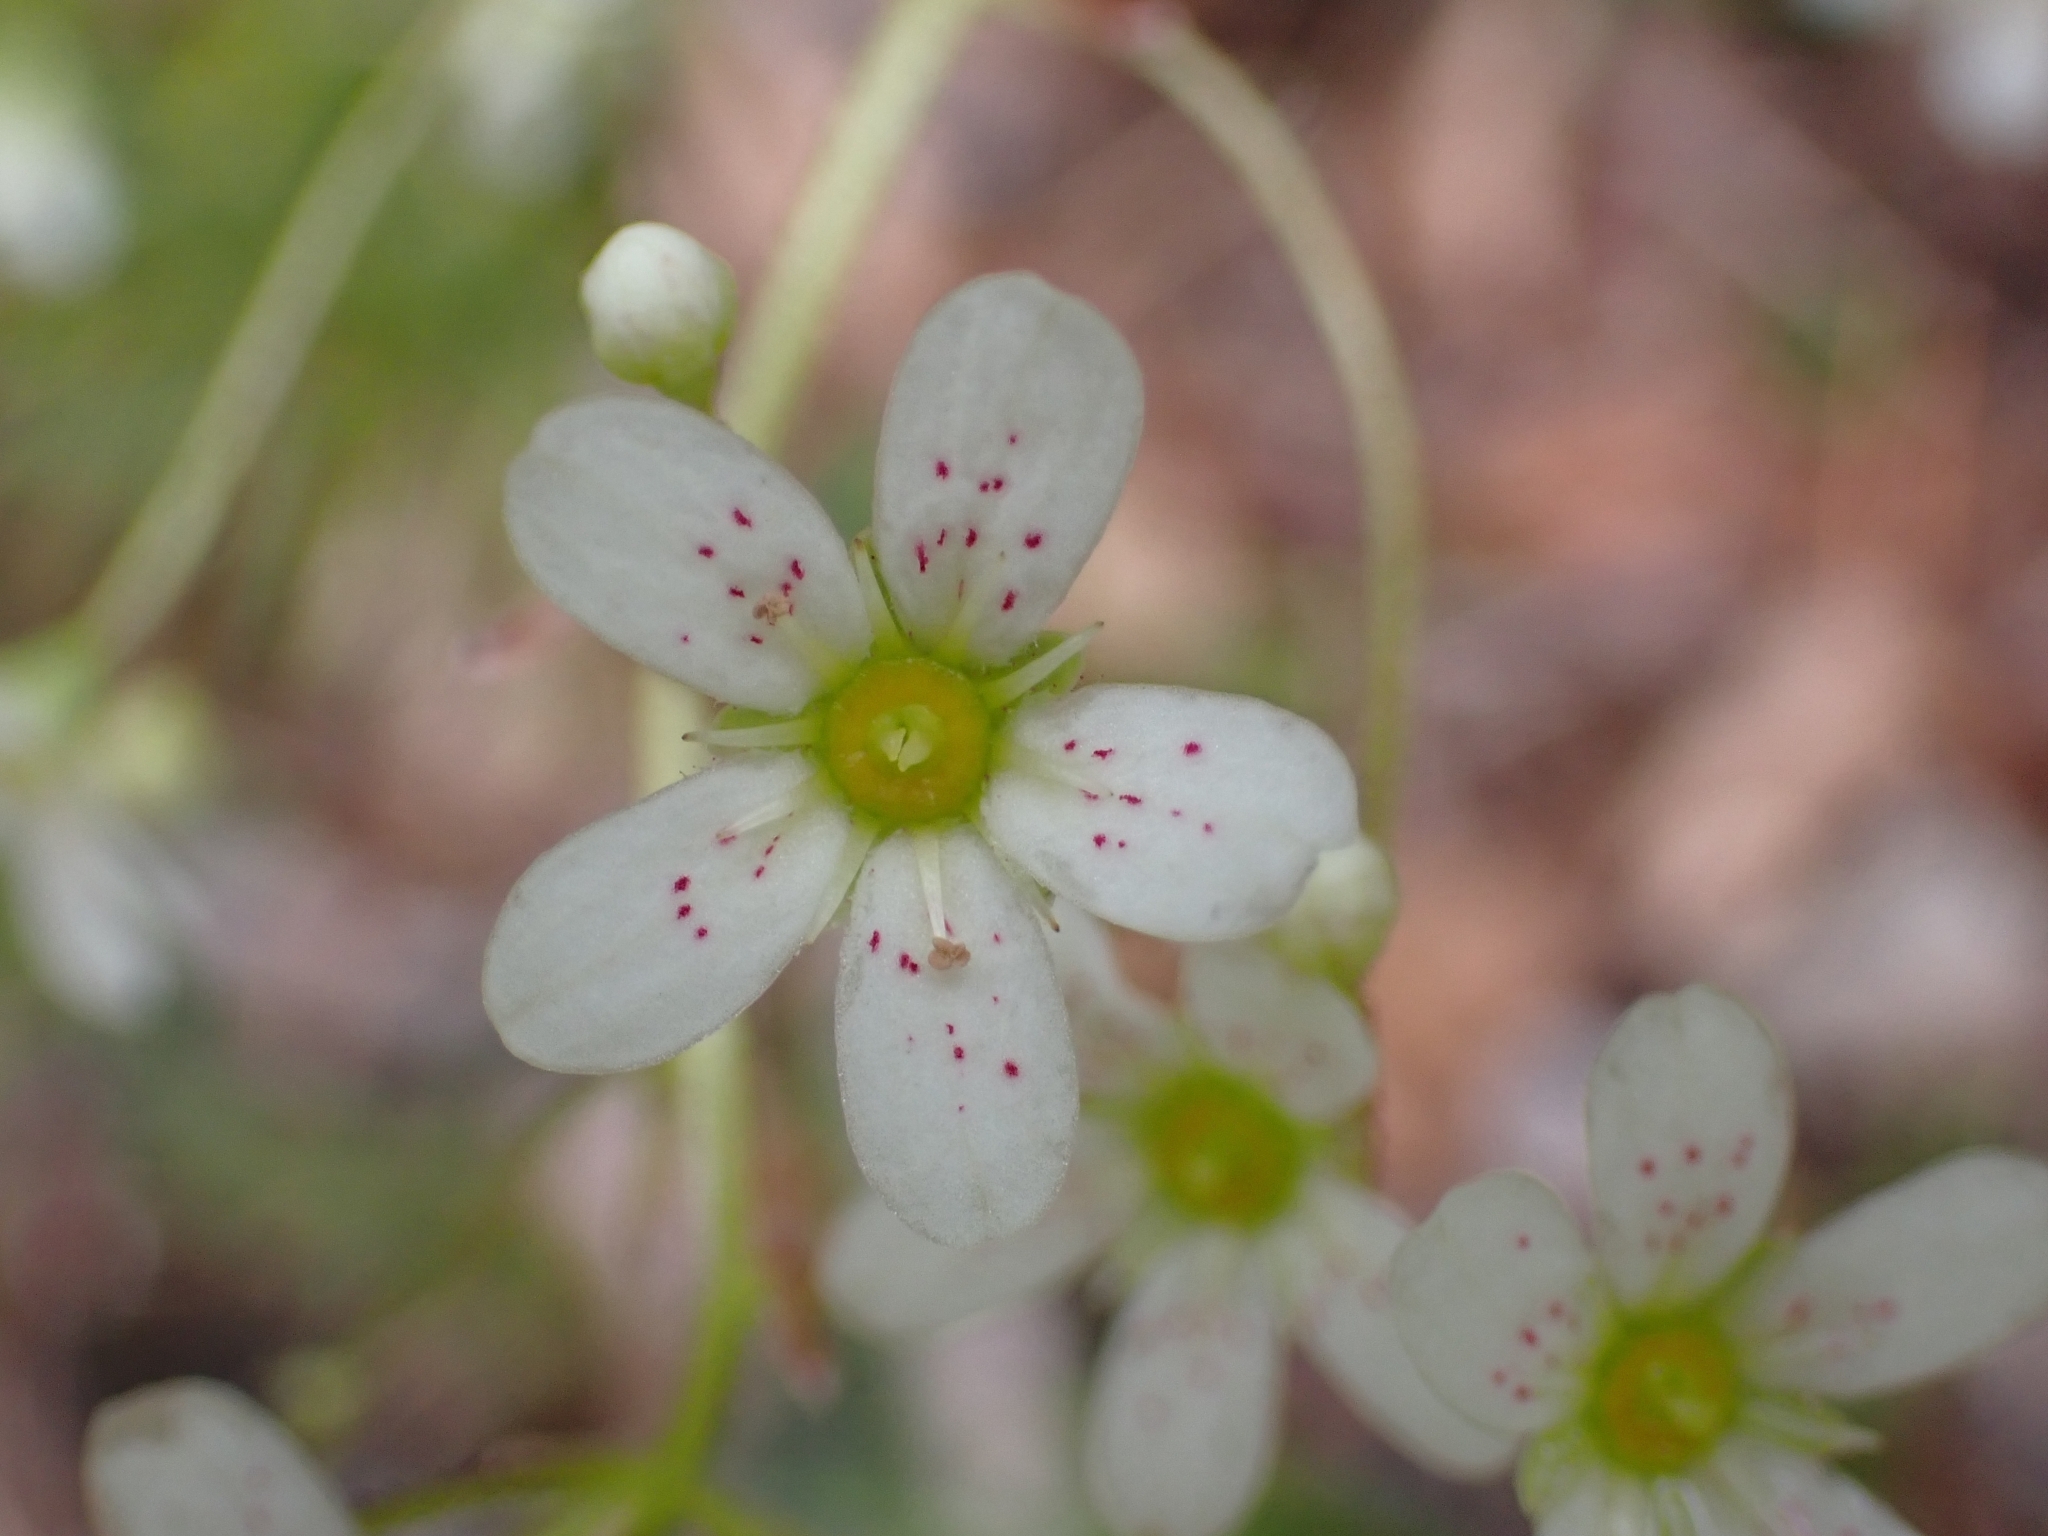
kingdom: Plantae
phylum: Tracheophyta
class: Magnoliopsida
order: Saxifragales
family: Saxifragaceae
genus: Saxifraga
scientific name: Saxifraga paniculata
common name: Livelong saxifrage
